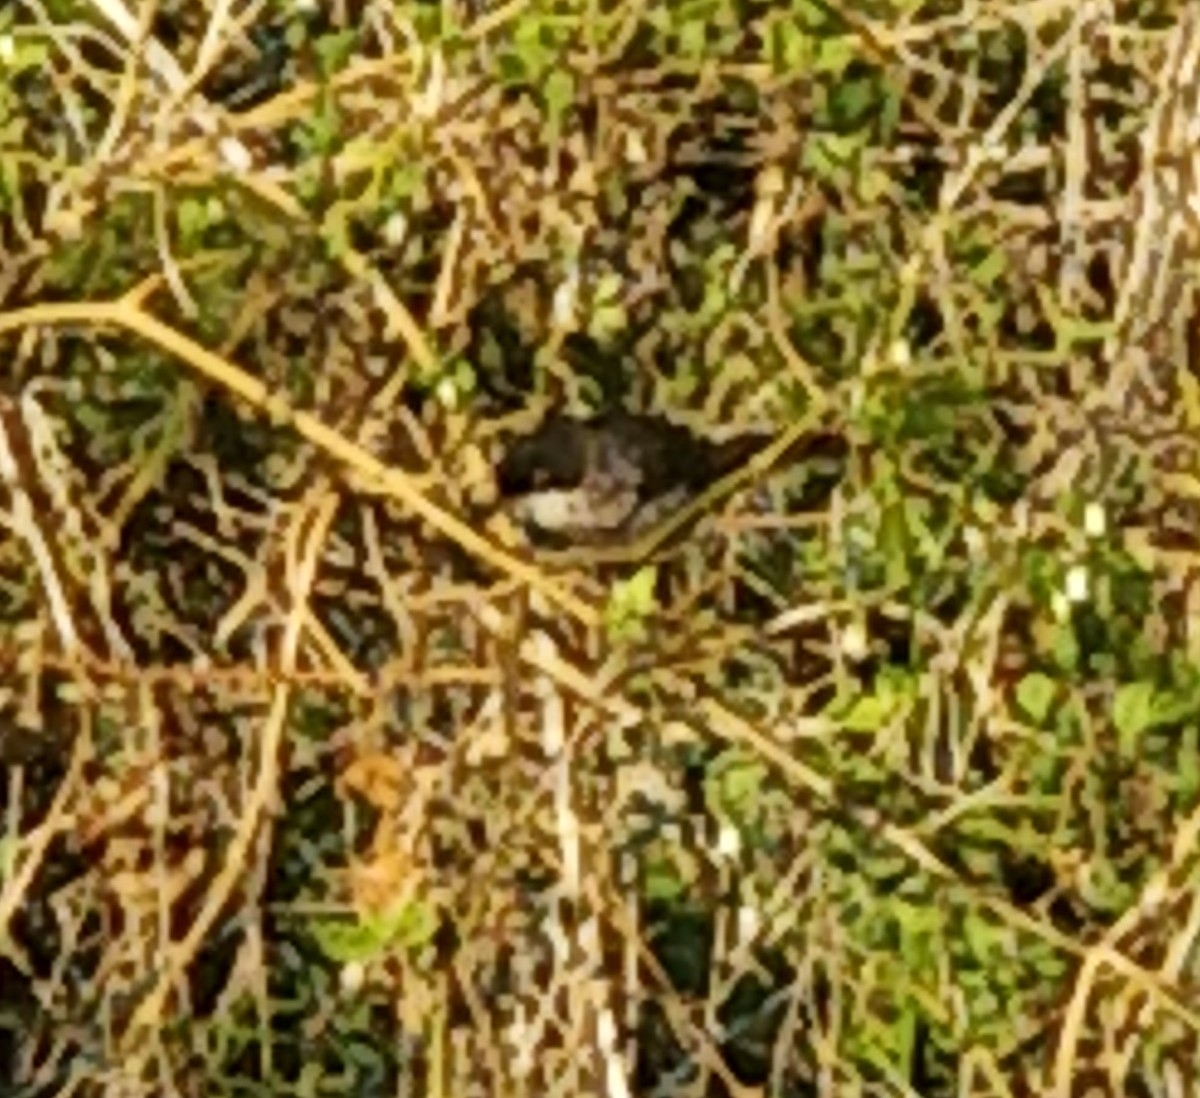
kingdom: Animalia
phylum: Chordata
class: Aves
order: Passeriformes
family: Sylviidae
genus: Curruca
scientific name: Curruca melanocephala
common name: Sardinian warbler
